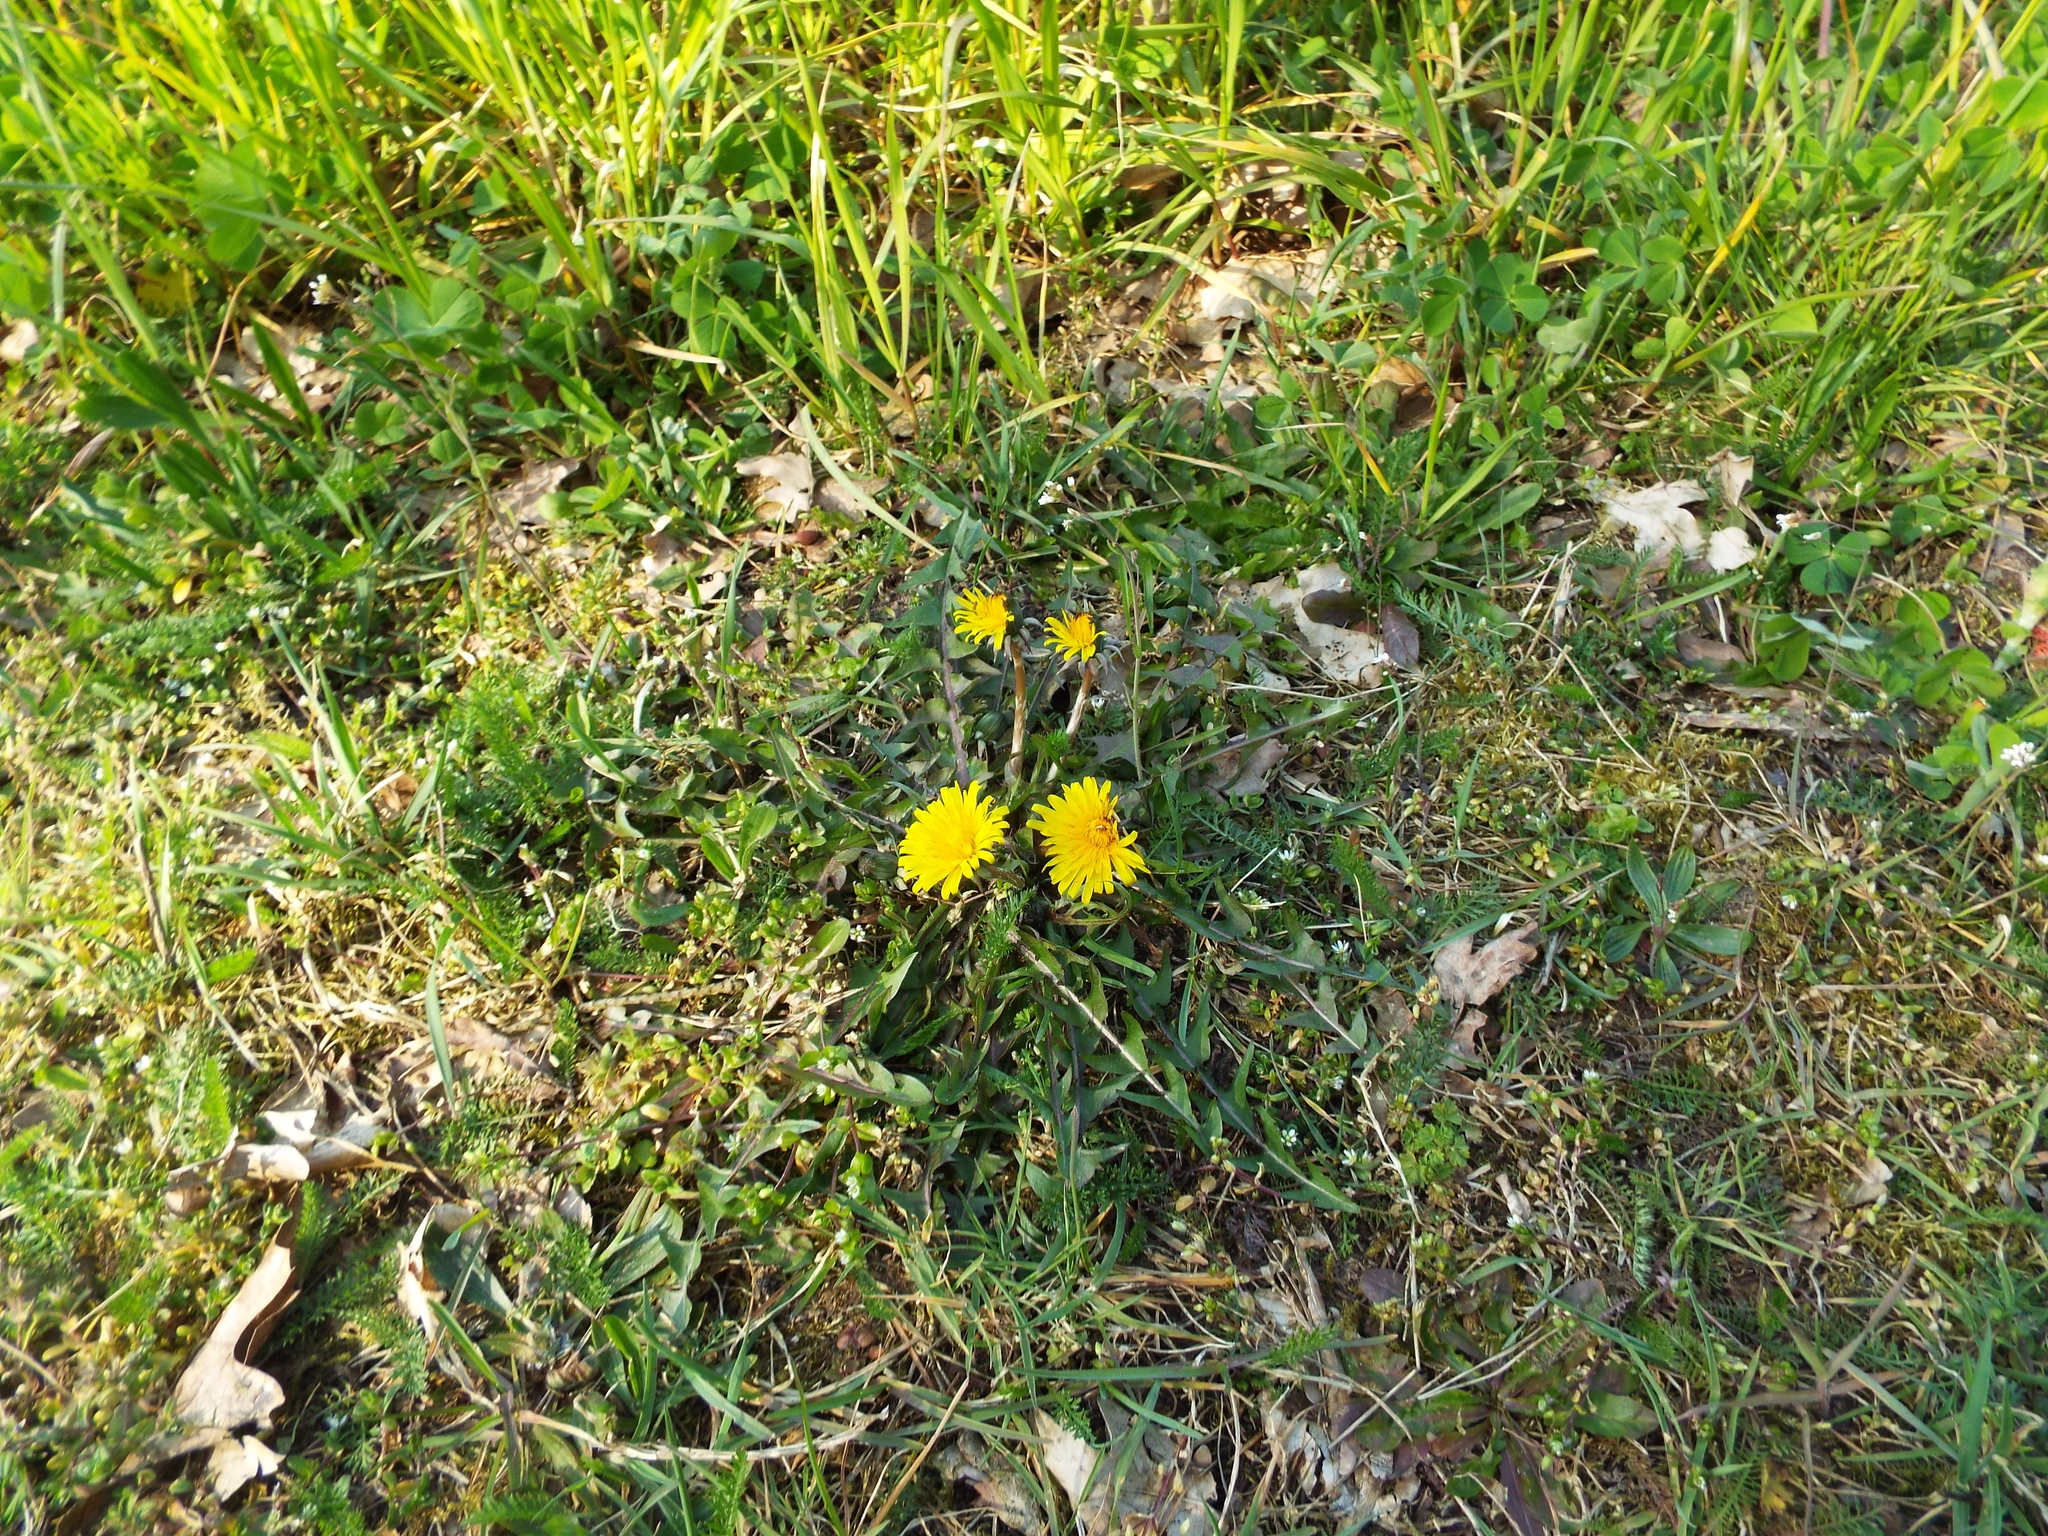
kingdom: Plantae
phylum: Tracheophyta
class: Magnoliopsida
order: Asterales
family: Asteraceae
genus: Taraxacum
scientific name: Taraxacum officinale
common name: Common dandelion
